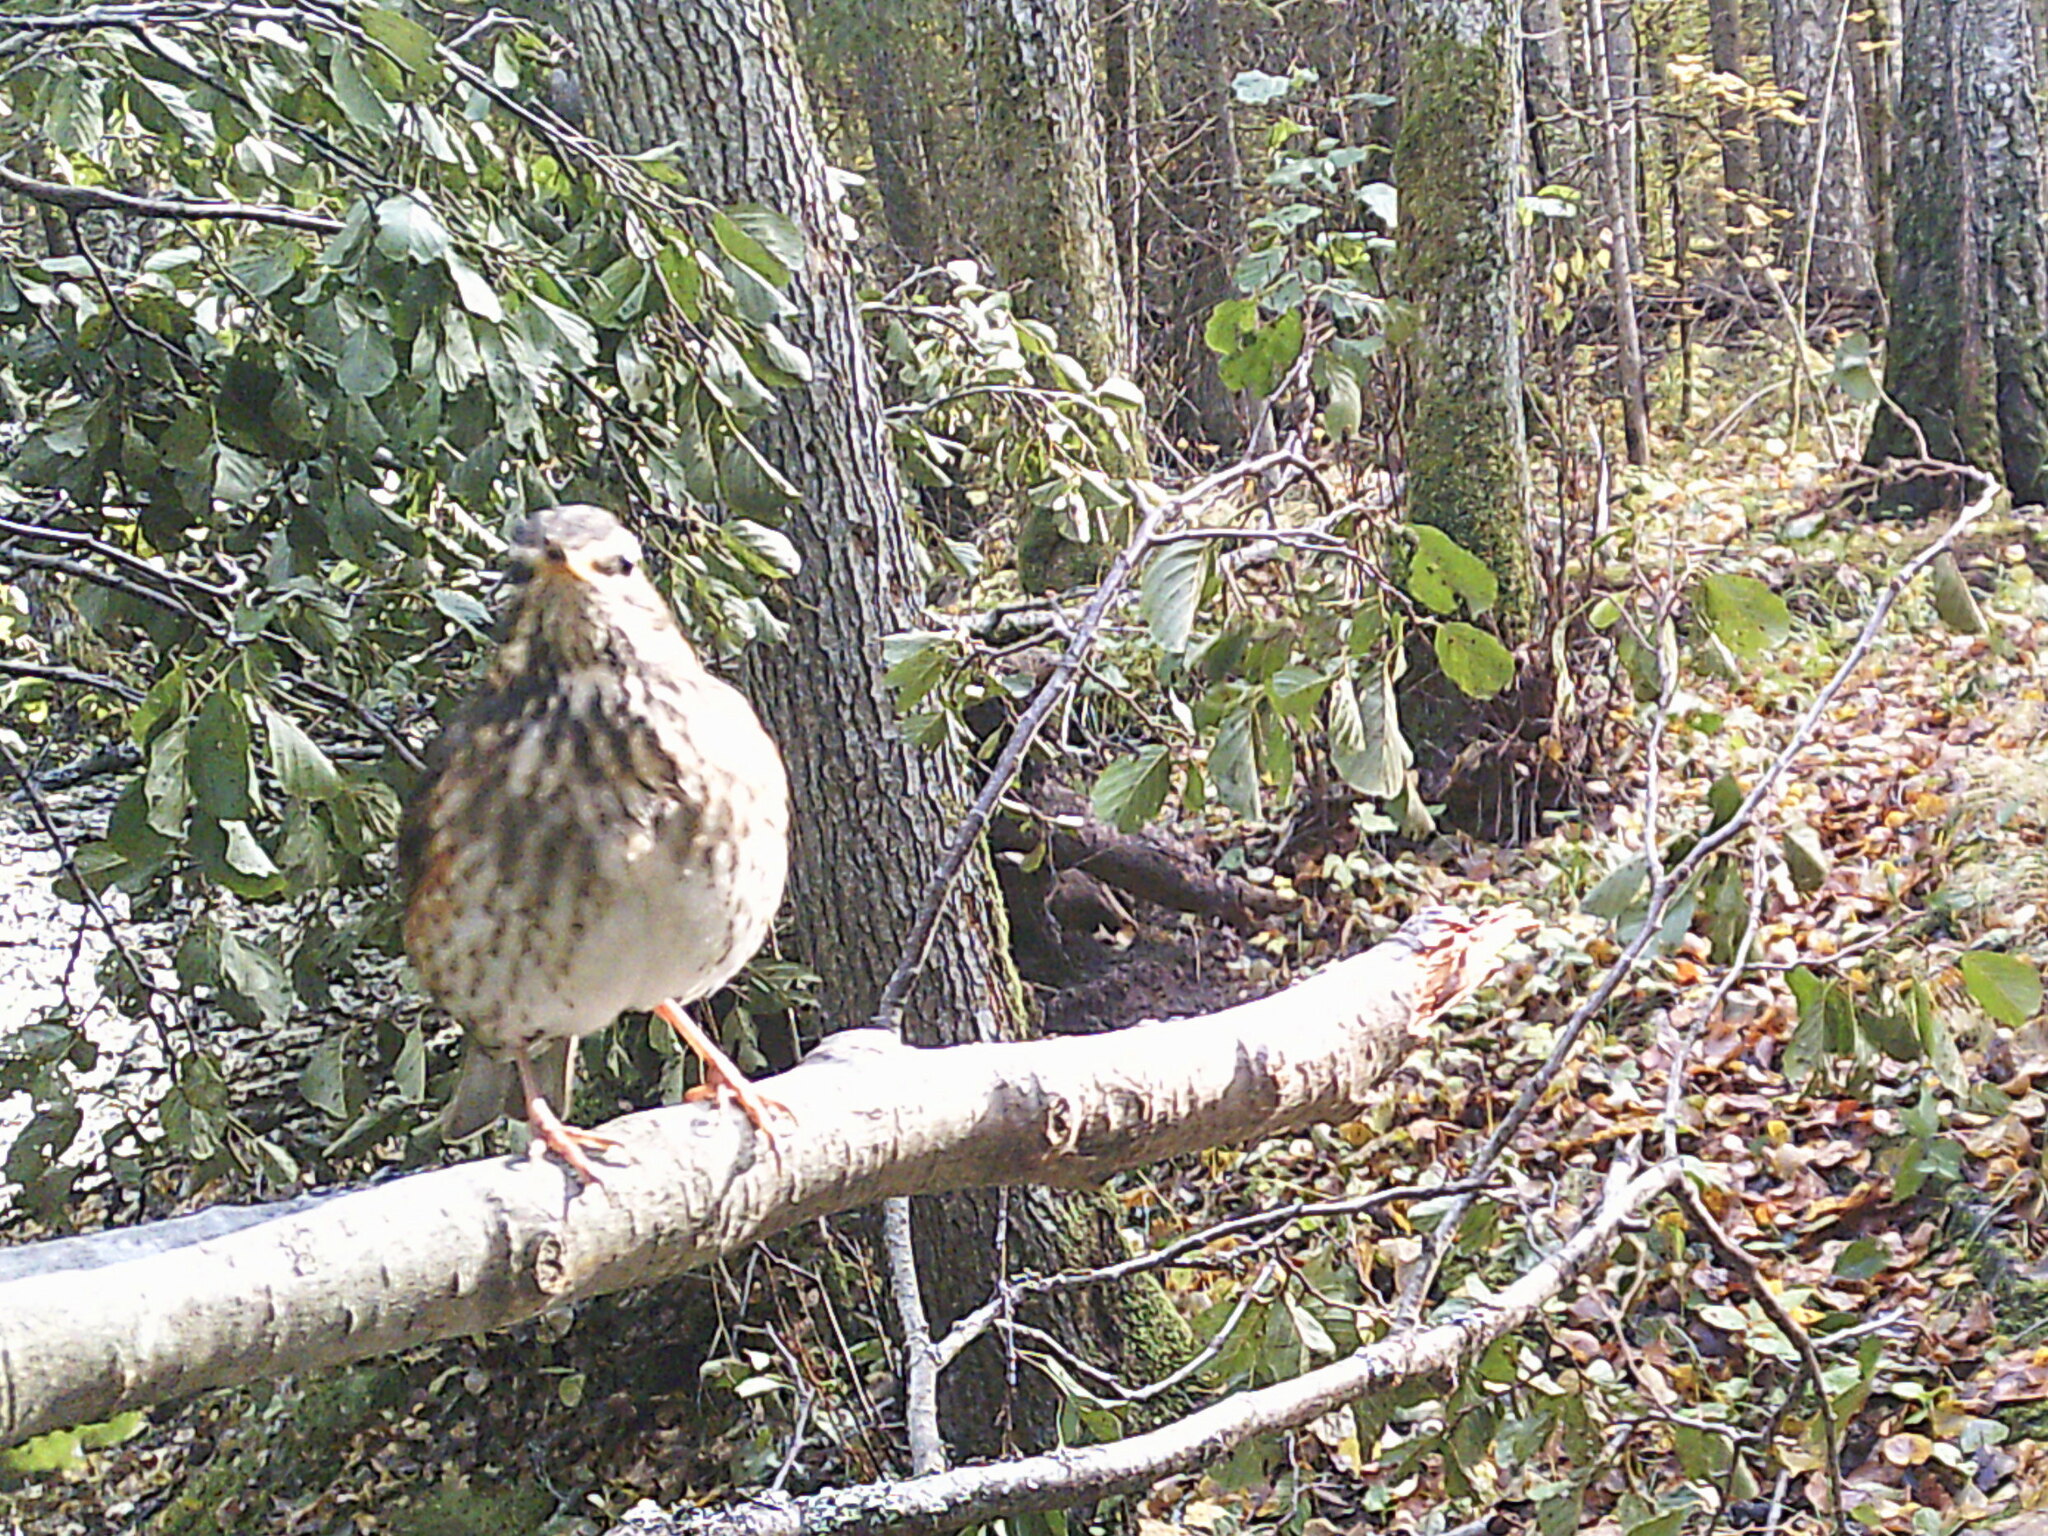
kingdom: Animalia
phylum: Chordata
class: Aves
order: Passeriformes
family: Turdidae
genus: Turdus
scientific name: Turdus iliacus
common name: Redwing
